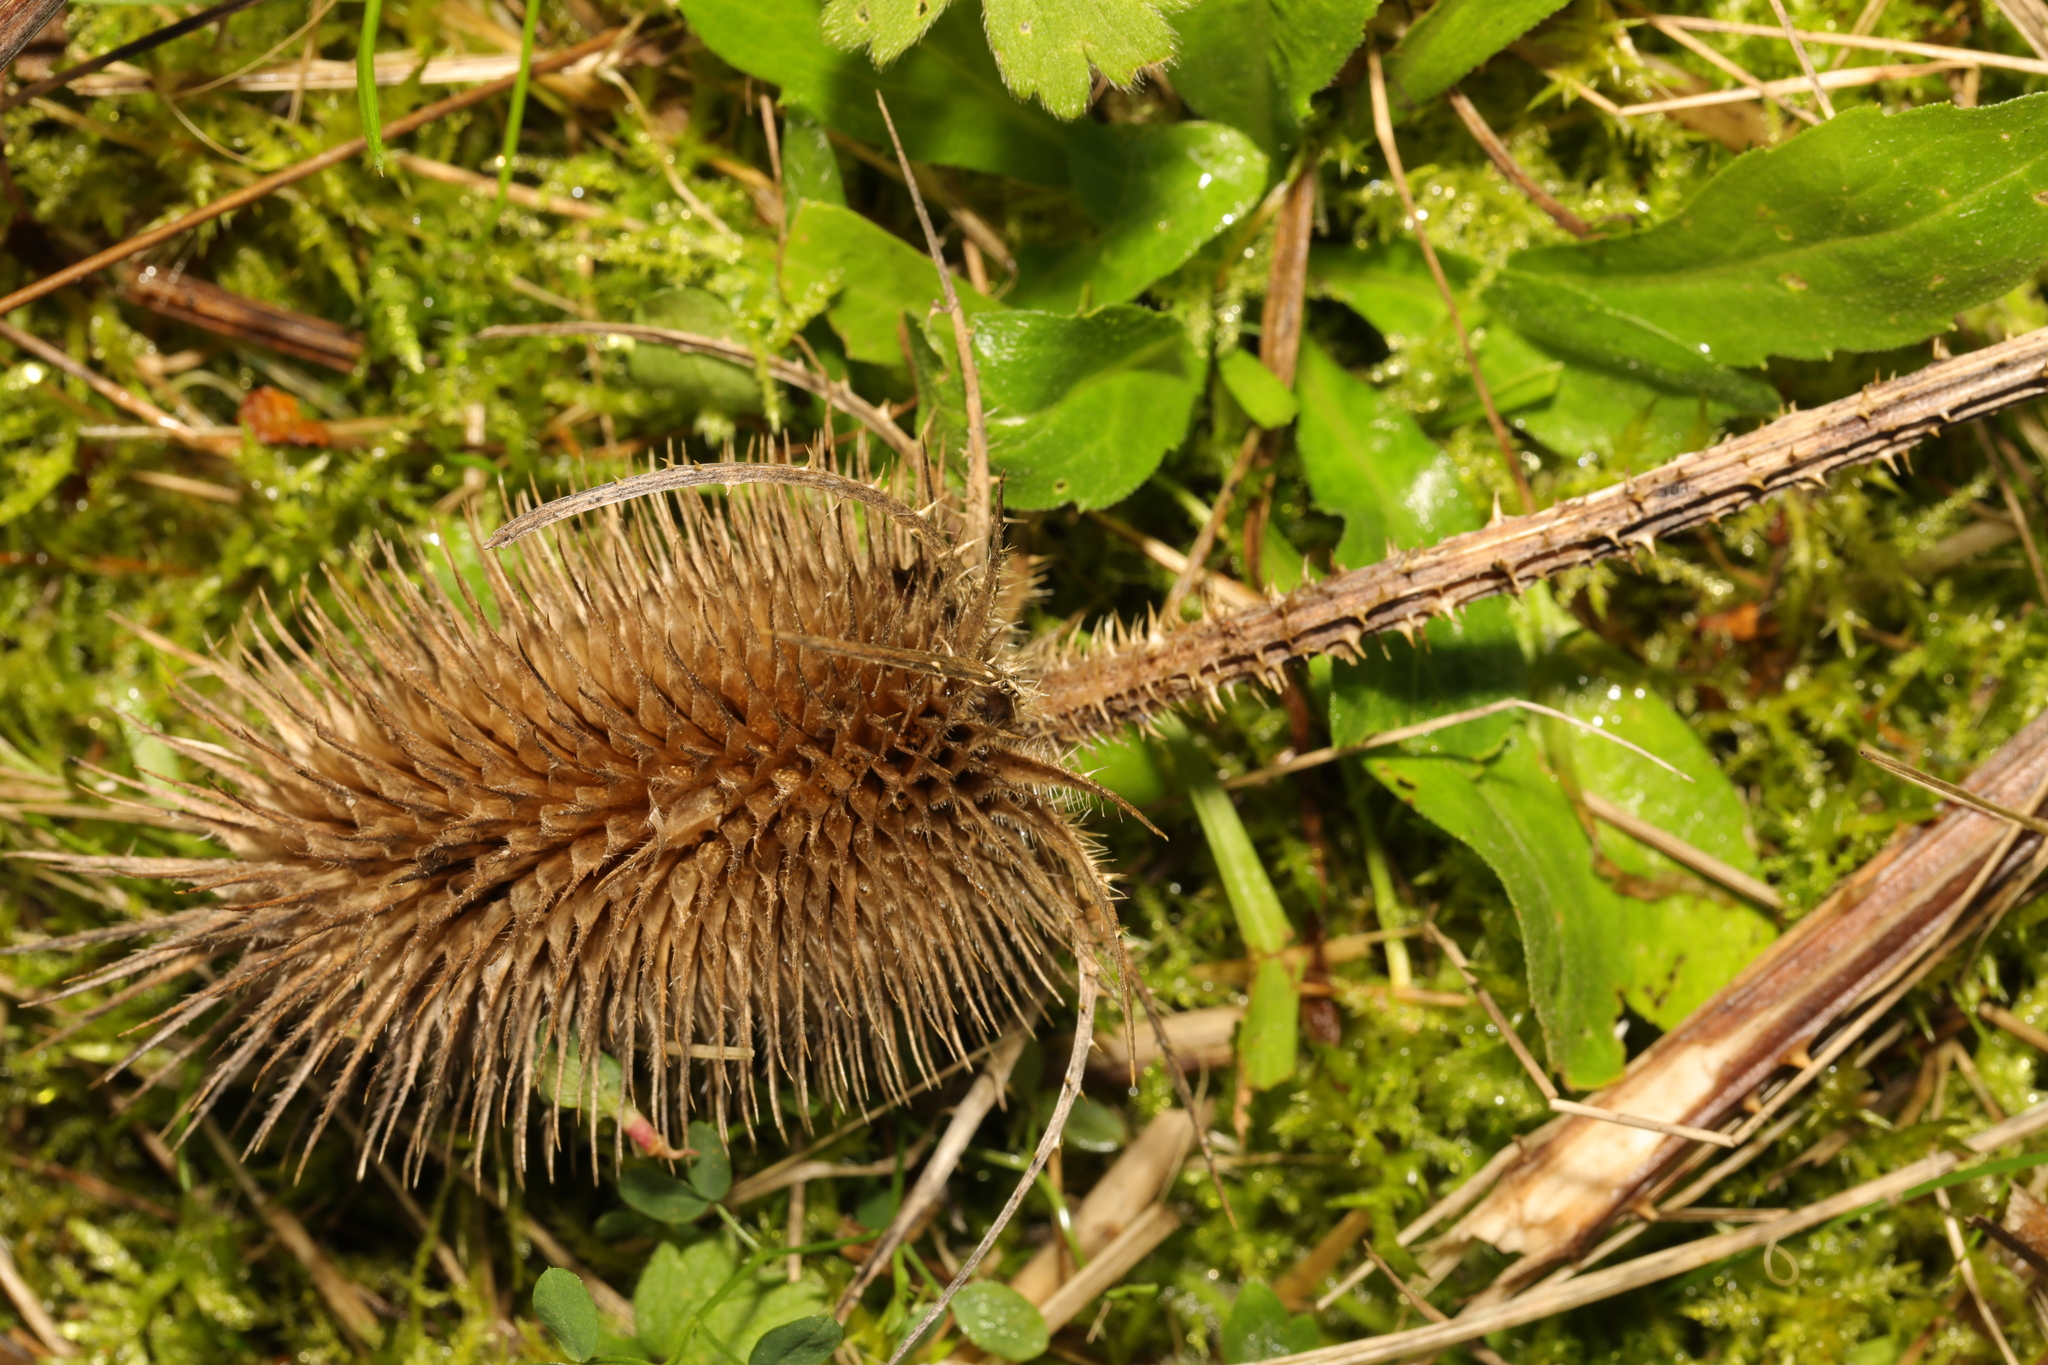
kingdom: Plantae
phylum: Tracheophyta
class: Magnoliopsida
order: Dipsacales
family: Caprifoliaceae
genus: Dipsacus
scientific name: Dipsacus fullonum
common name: Teasel
